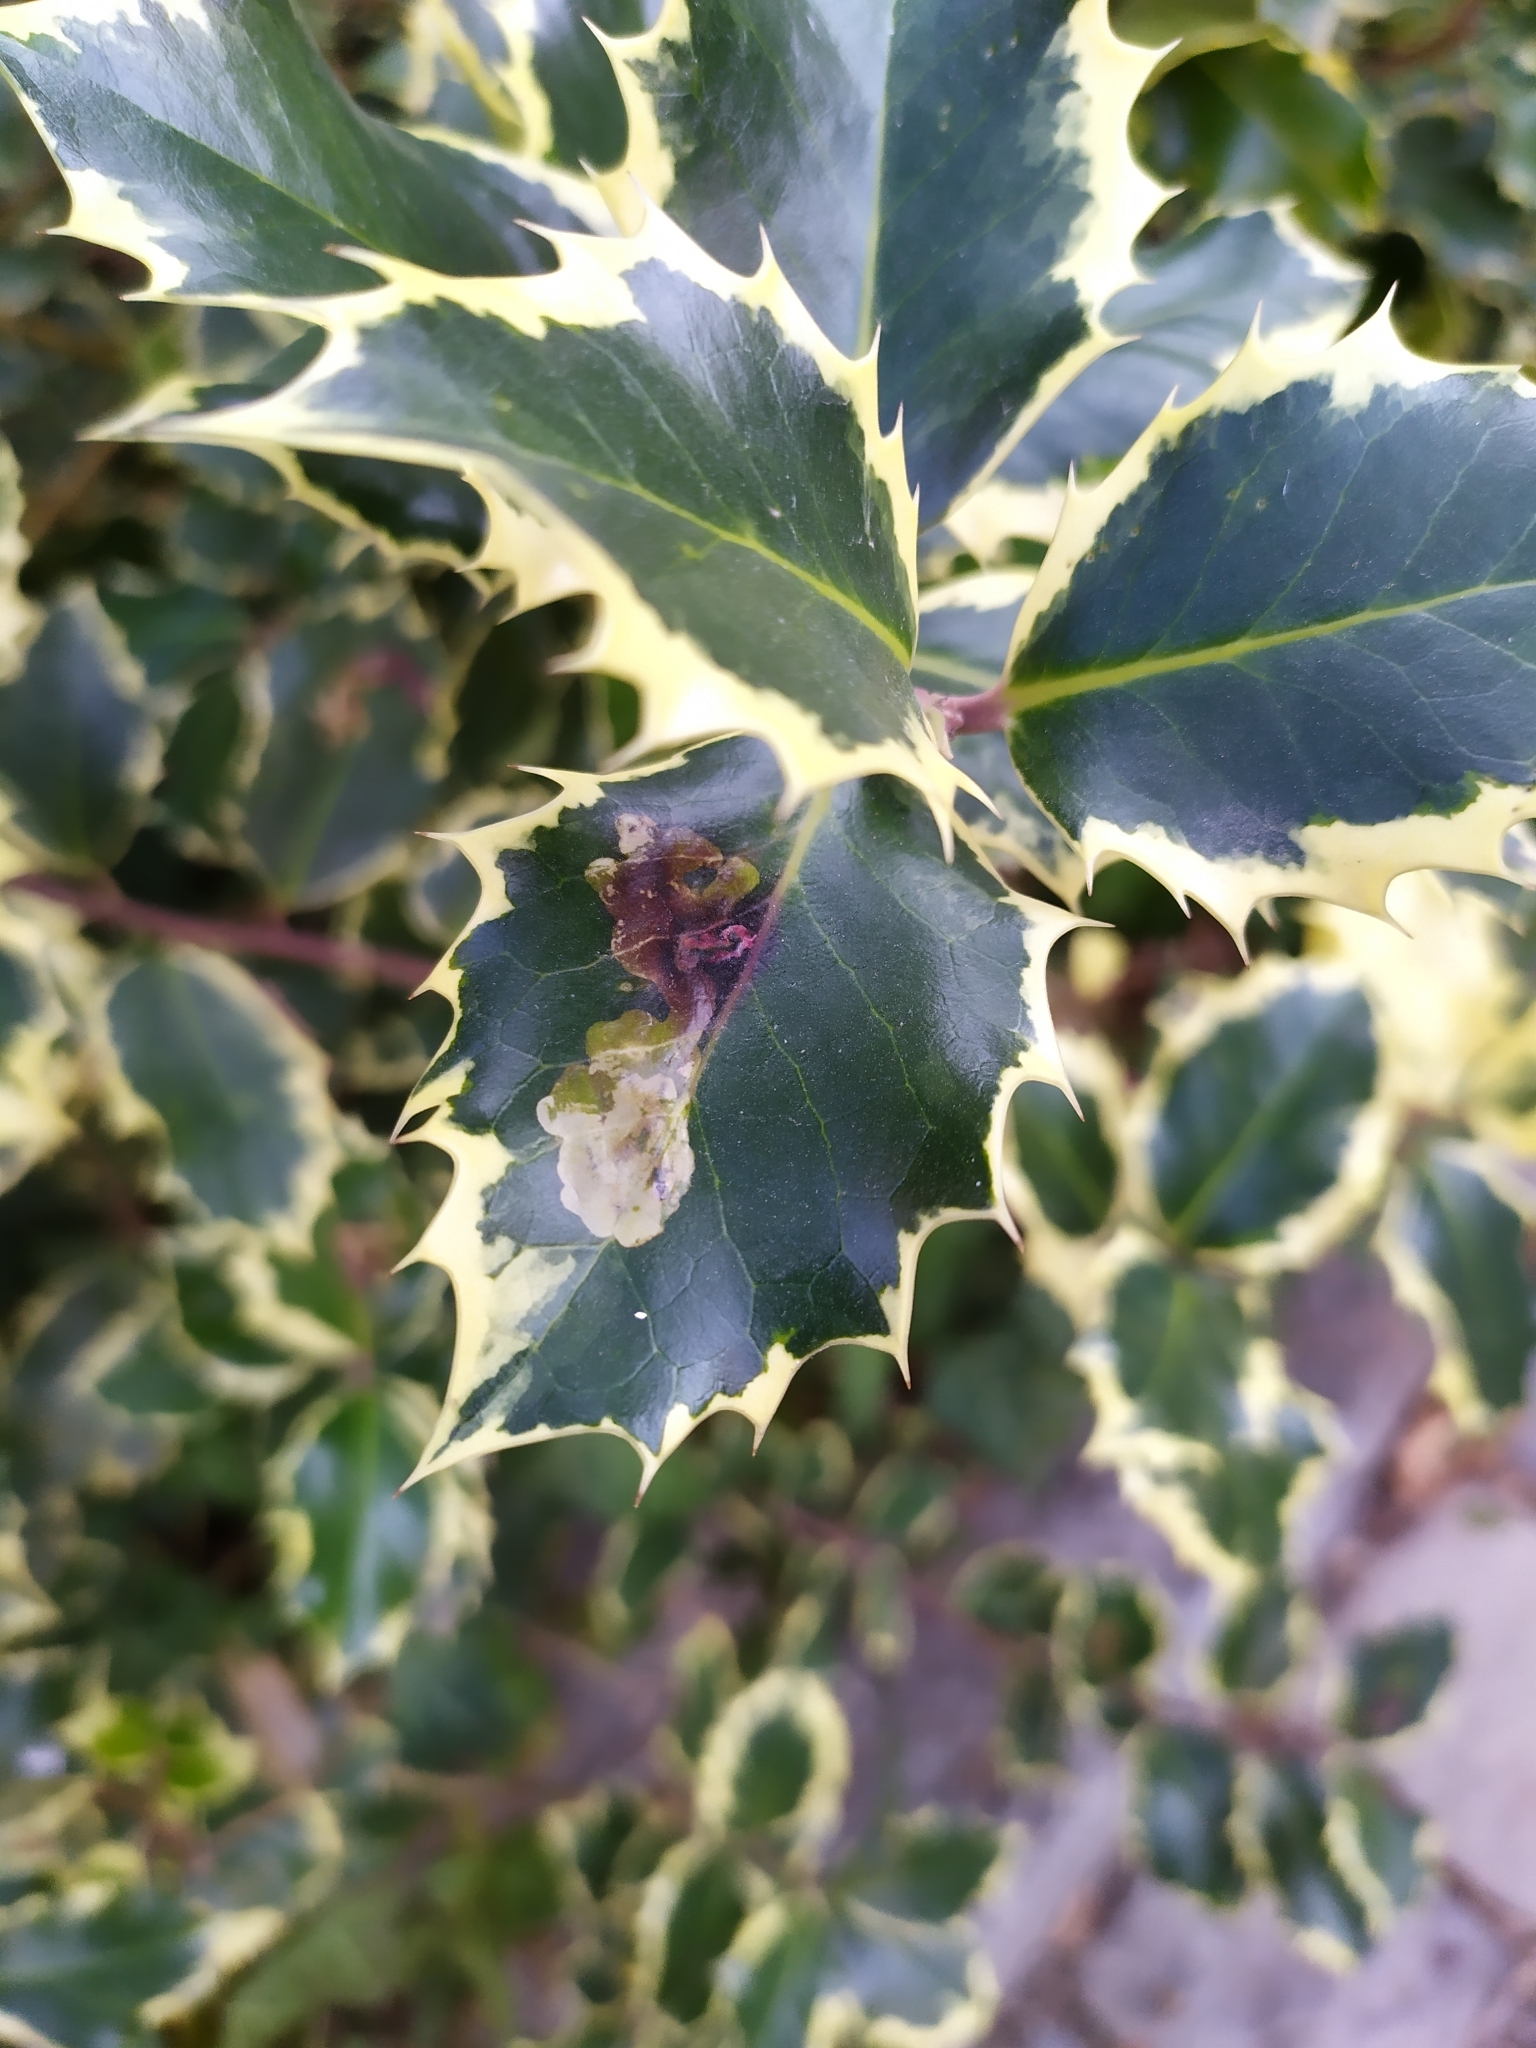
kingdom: Animalia
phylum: Arthropoda
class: Insecta
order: Diptera
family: Agromyzidae
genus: Phytomyza
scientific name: Phytomyza ilicis
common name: Holly leafminer
